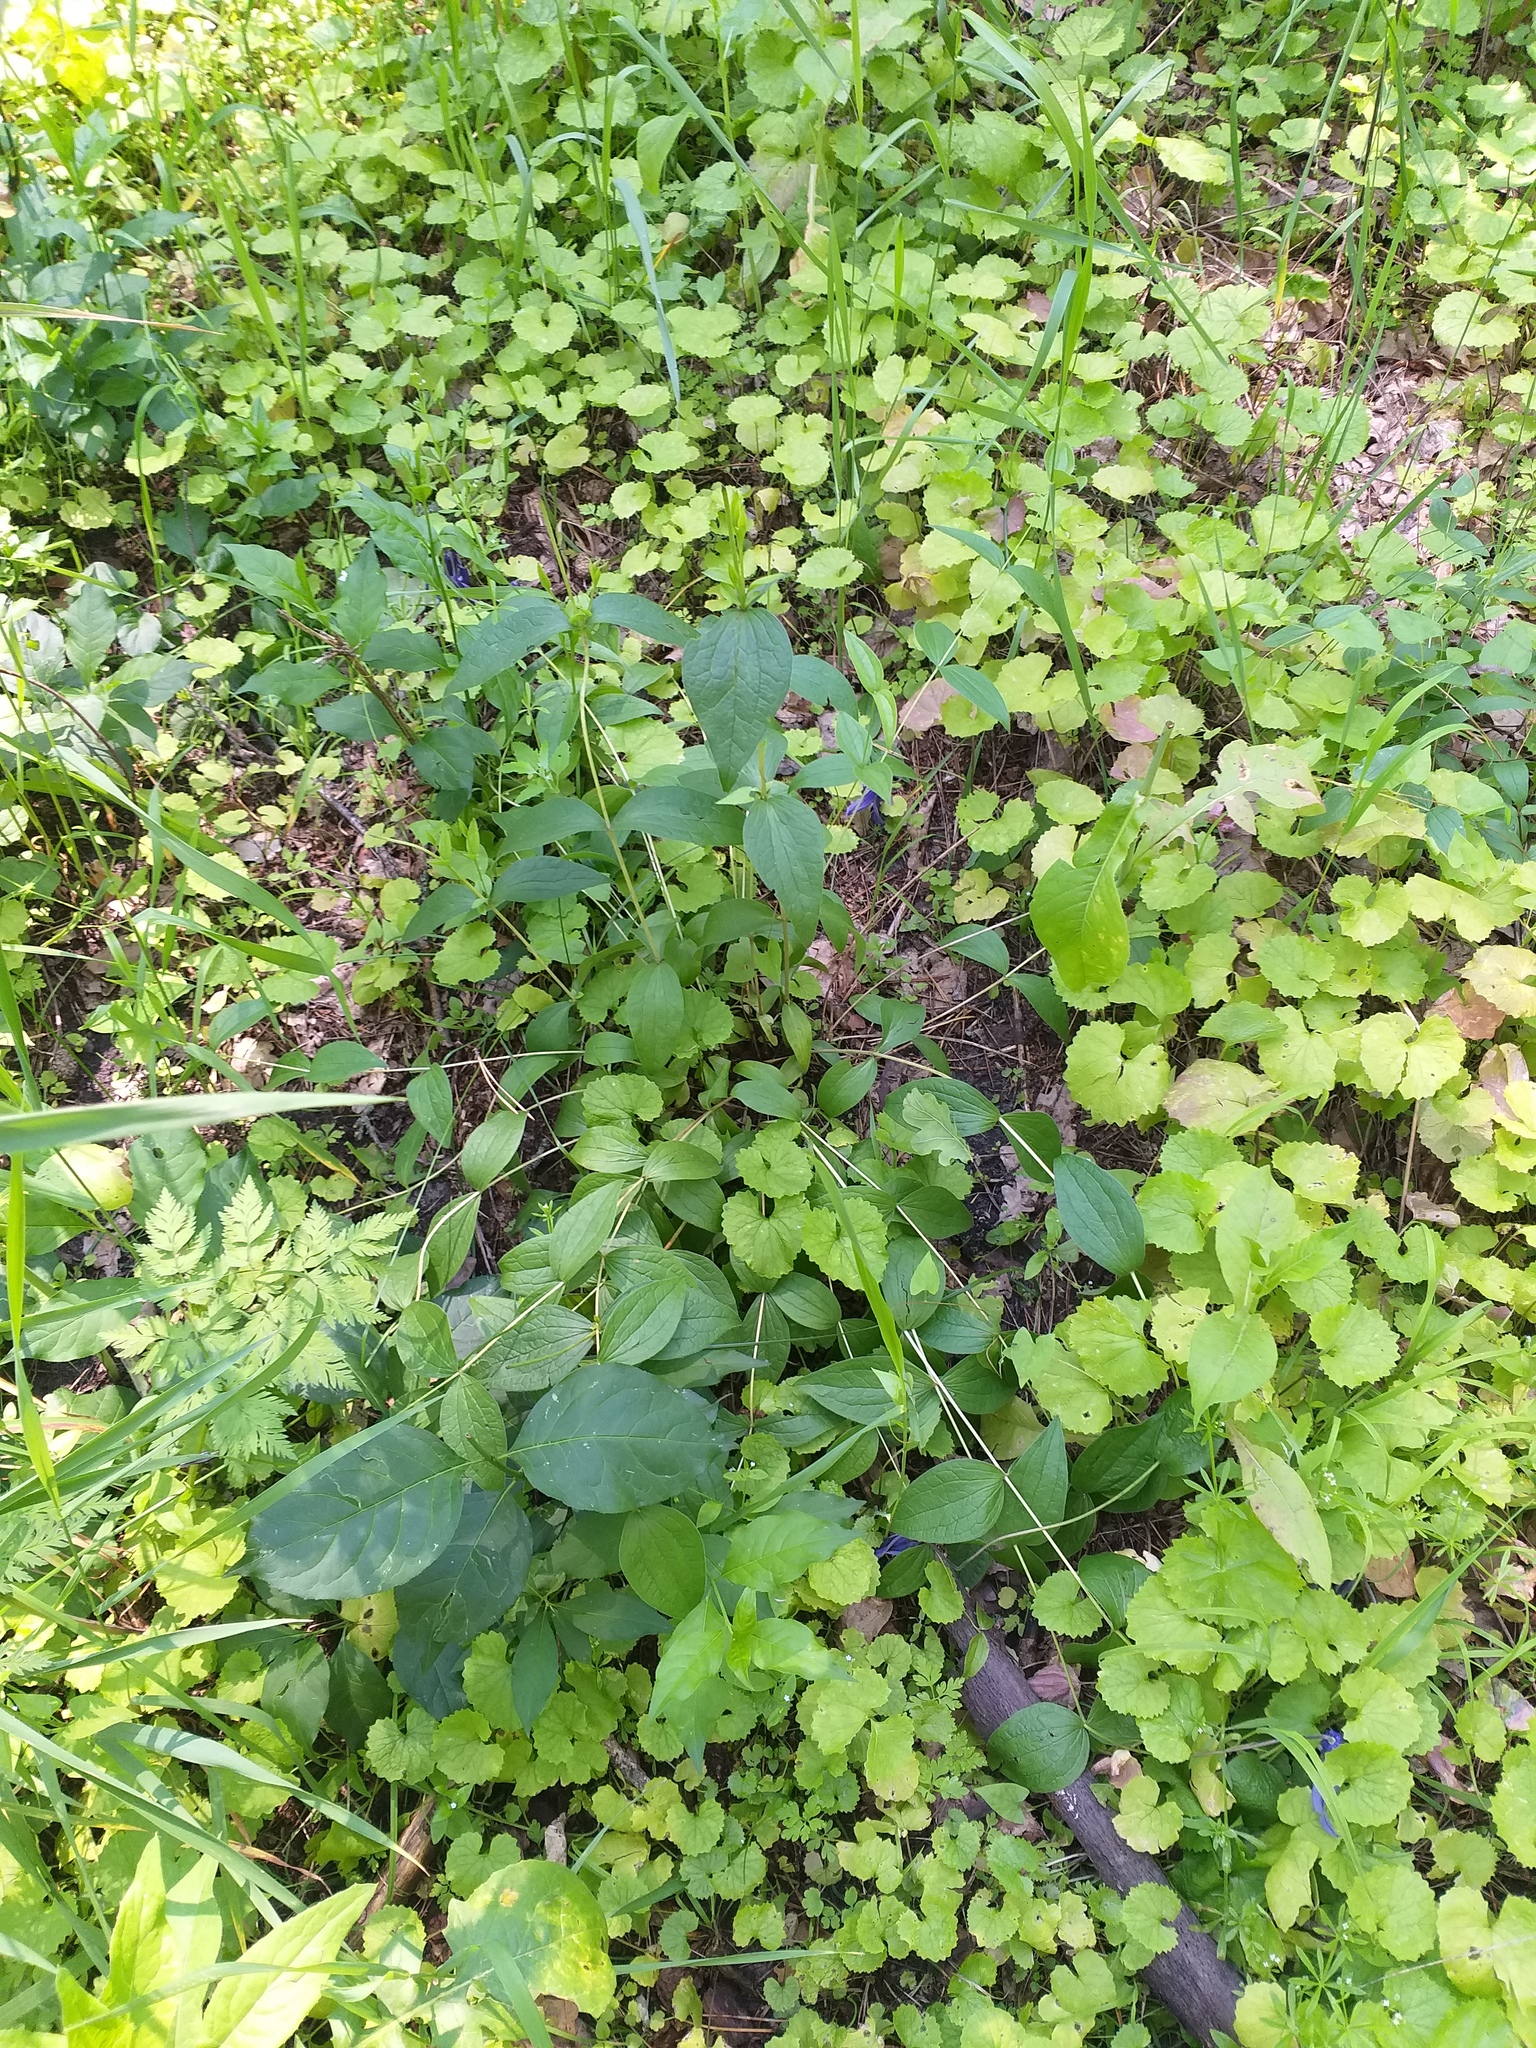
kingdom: Plantae
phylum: Tracheophyta
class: Magnoliopsida
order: Ranunculales
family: Ranunculaceae
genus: Clematis
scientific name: Clematis integrifolia
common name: Solitary clematis
